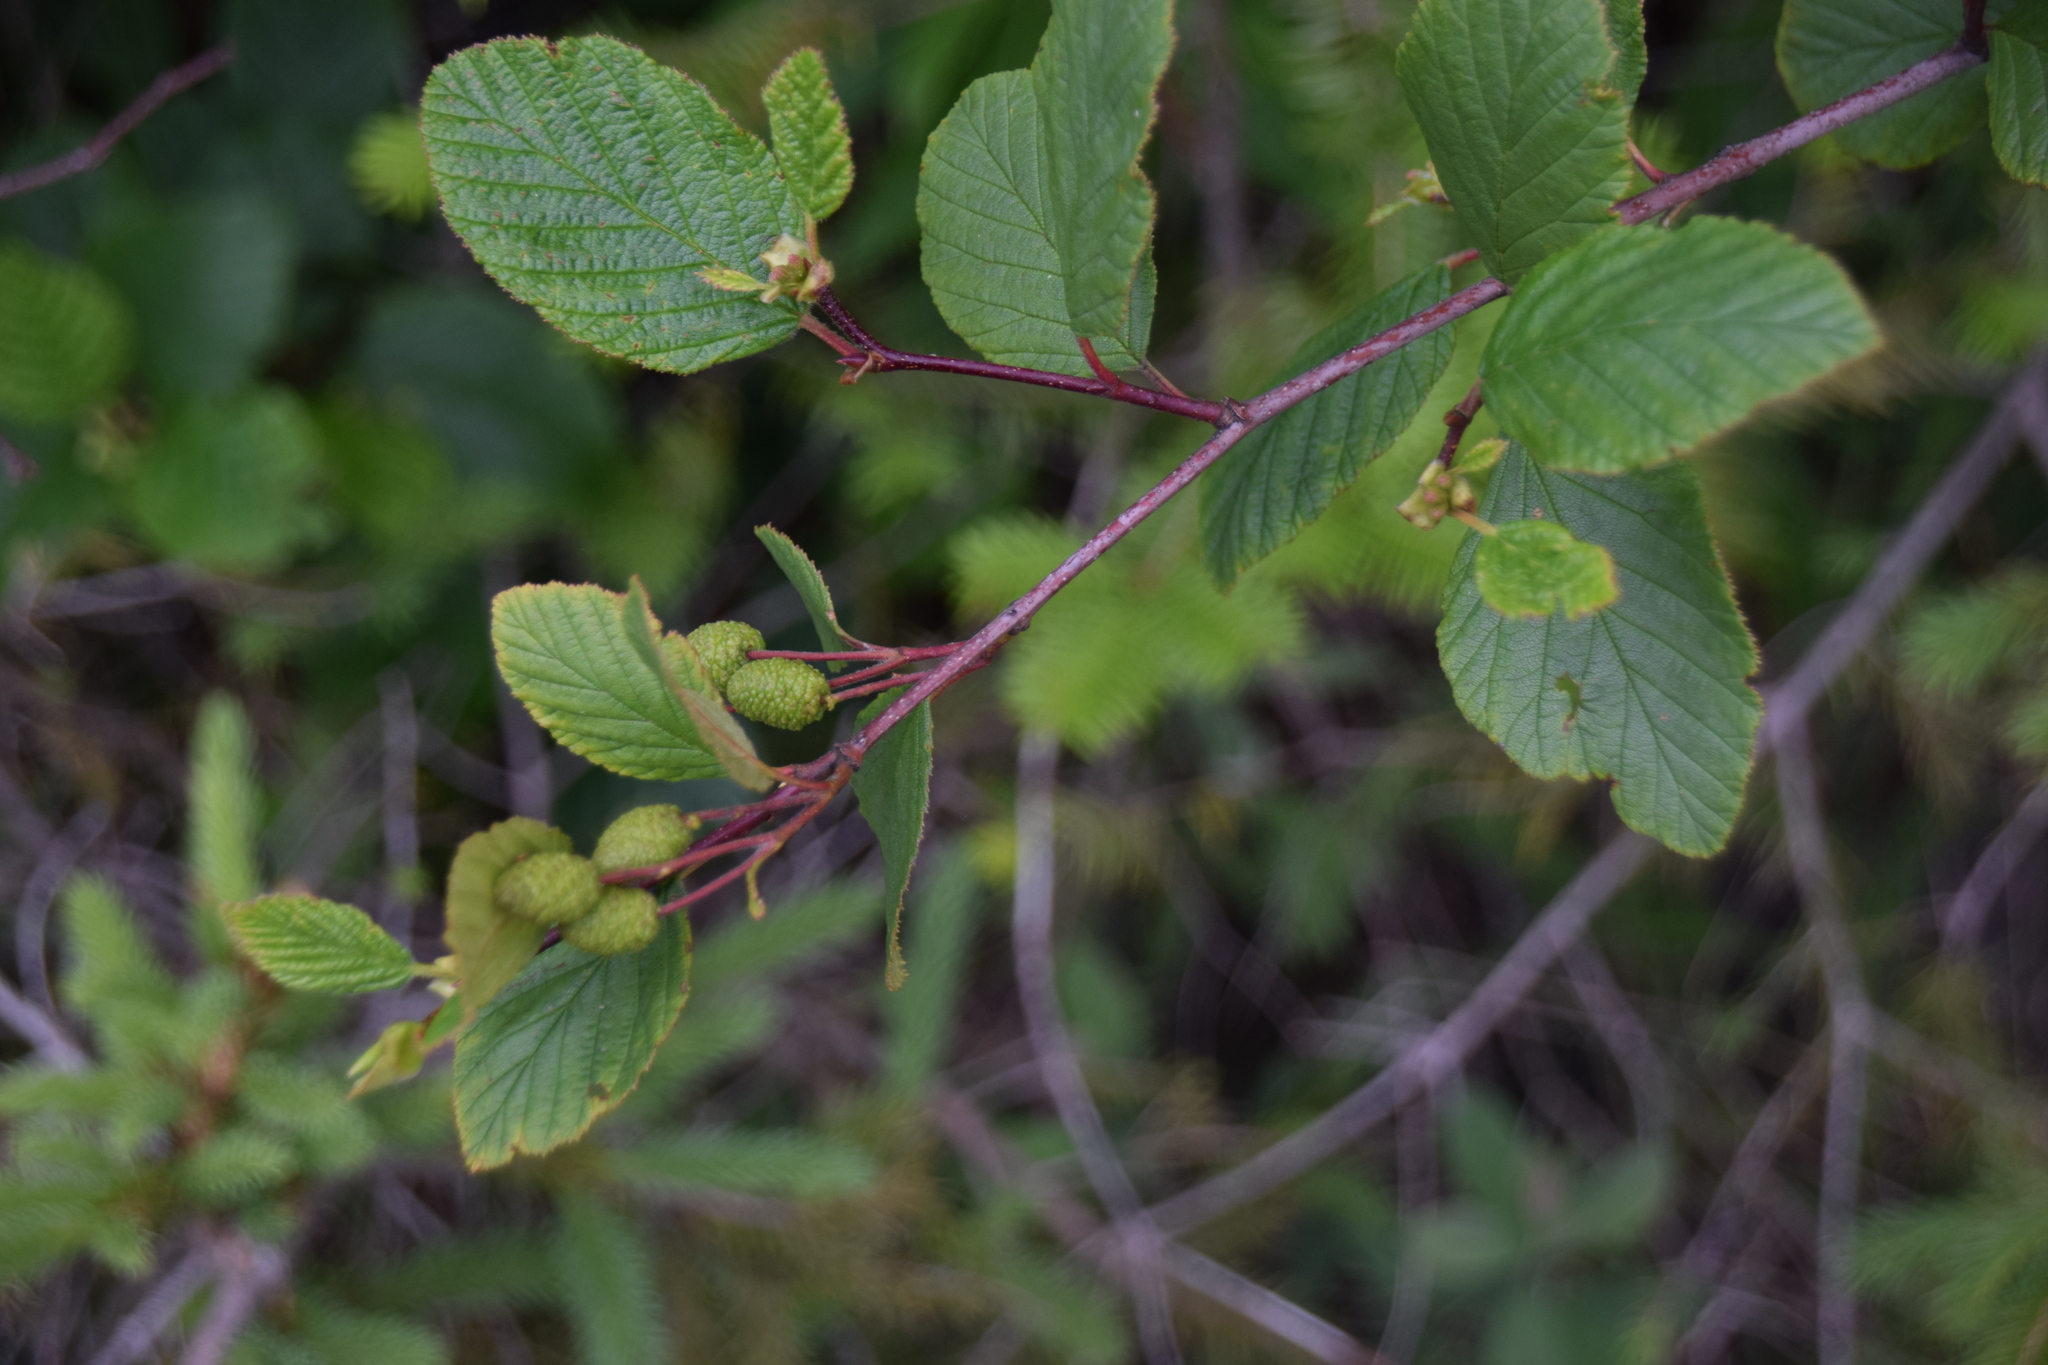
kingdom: Plantae
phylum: Tracheophyta
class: Magnoliopsida
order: Fagales
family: Betulaceae
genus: Alnus
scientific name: Alnus alnobetula
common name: Green alder
